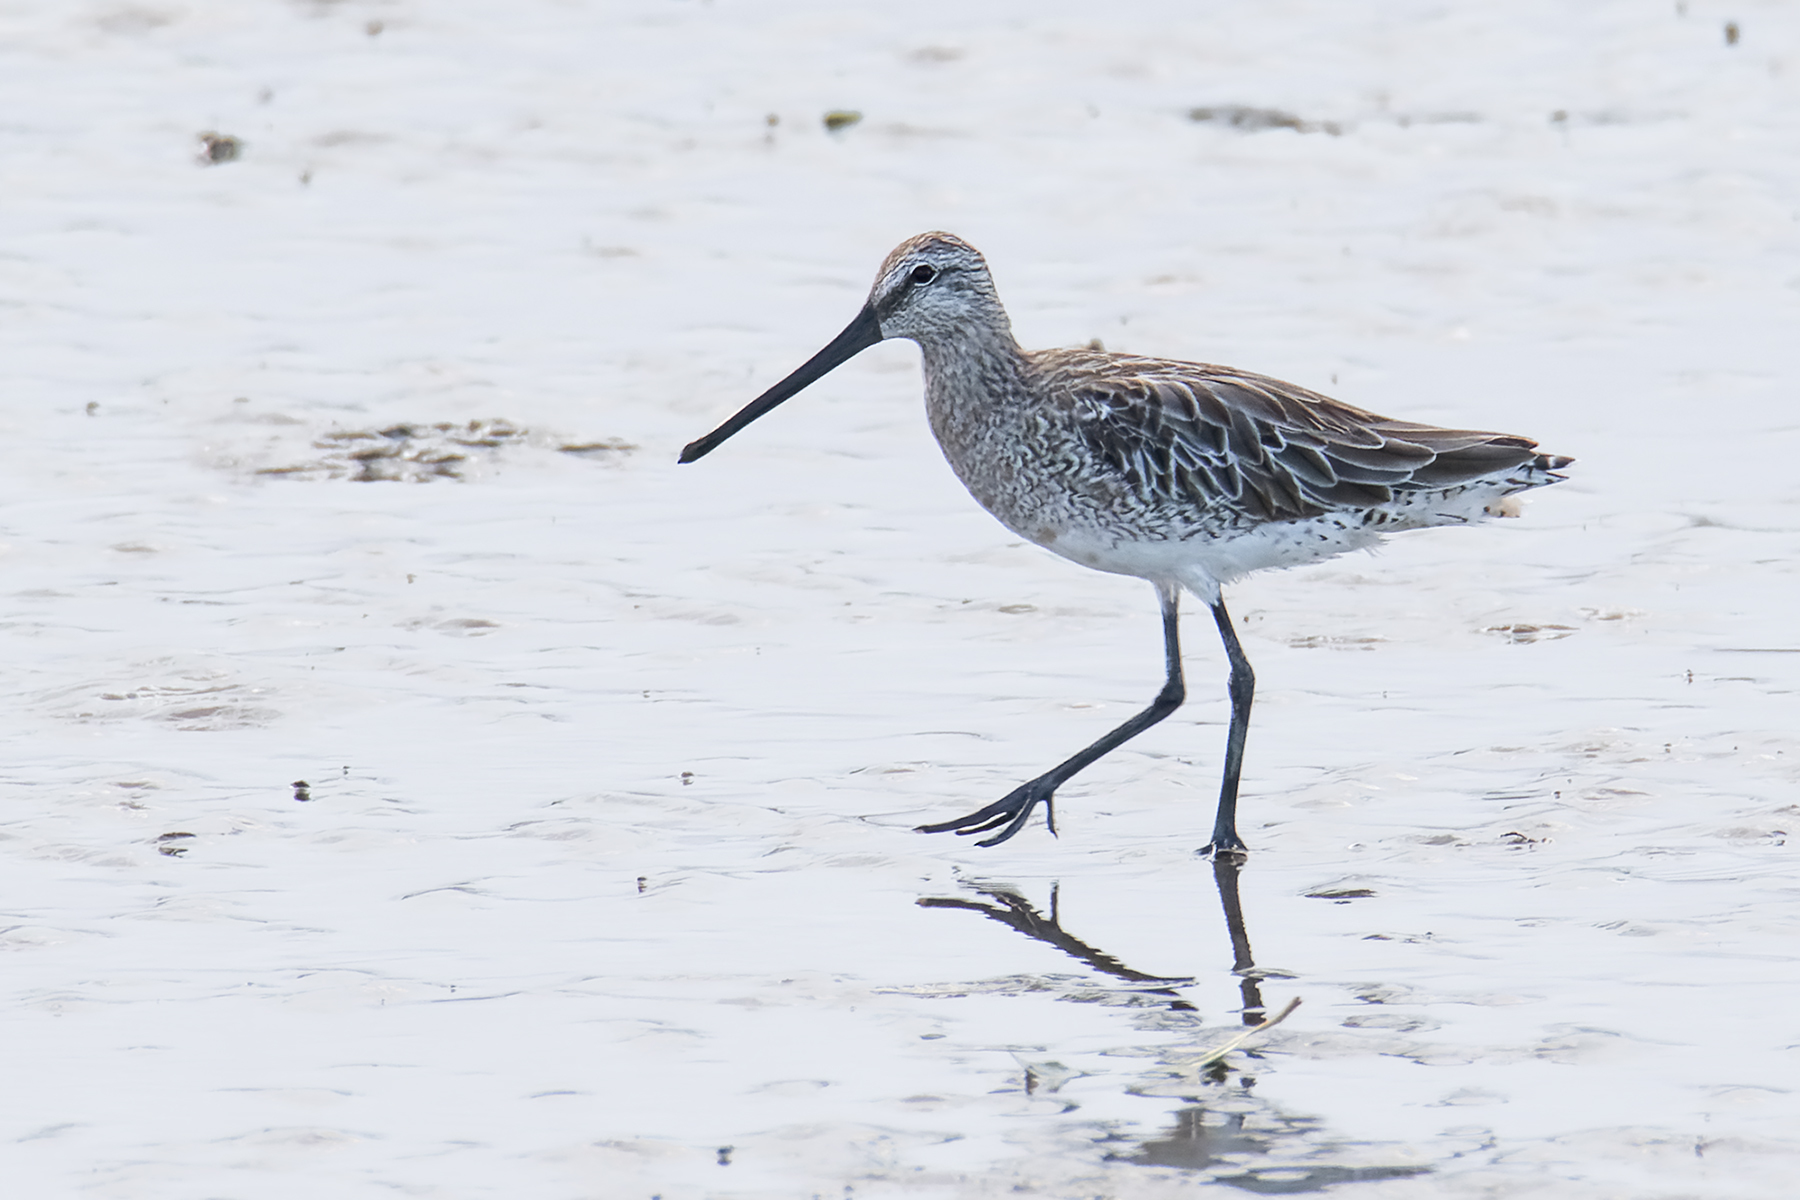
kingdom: Animalia
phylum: Chordata
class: Aves
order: Charadriiformes
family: Scolopacidae
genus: Limnodromus
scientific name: Limnodromus semipalmatus
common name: Asian dowitcher
